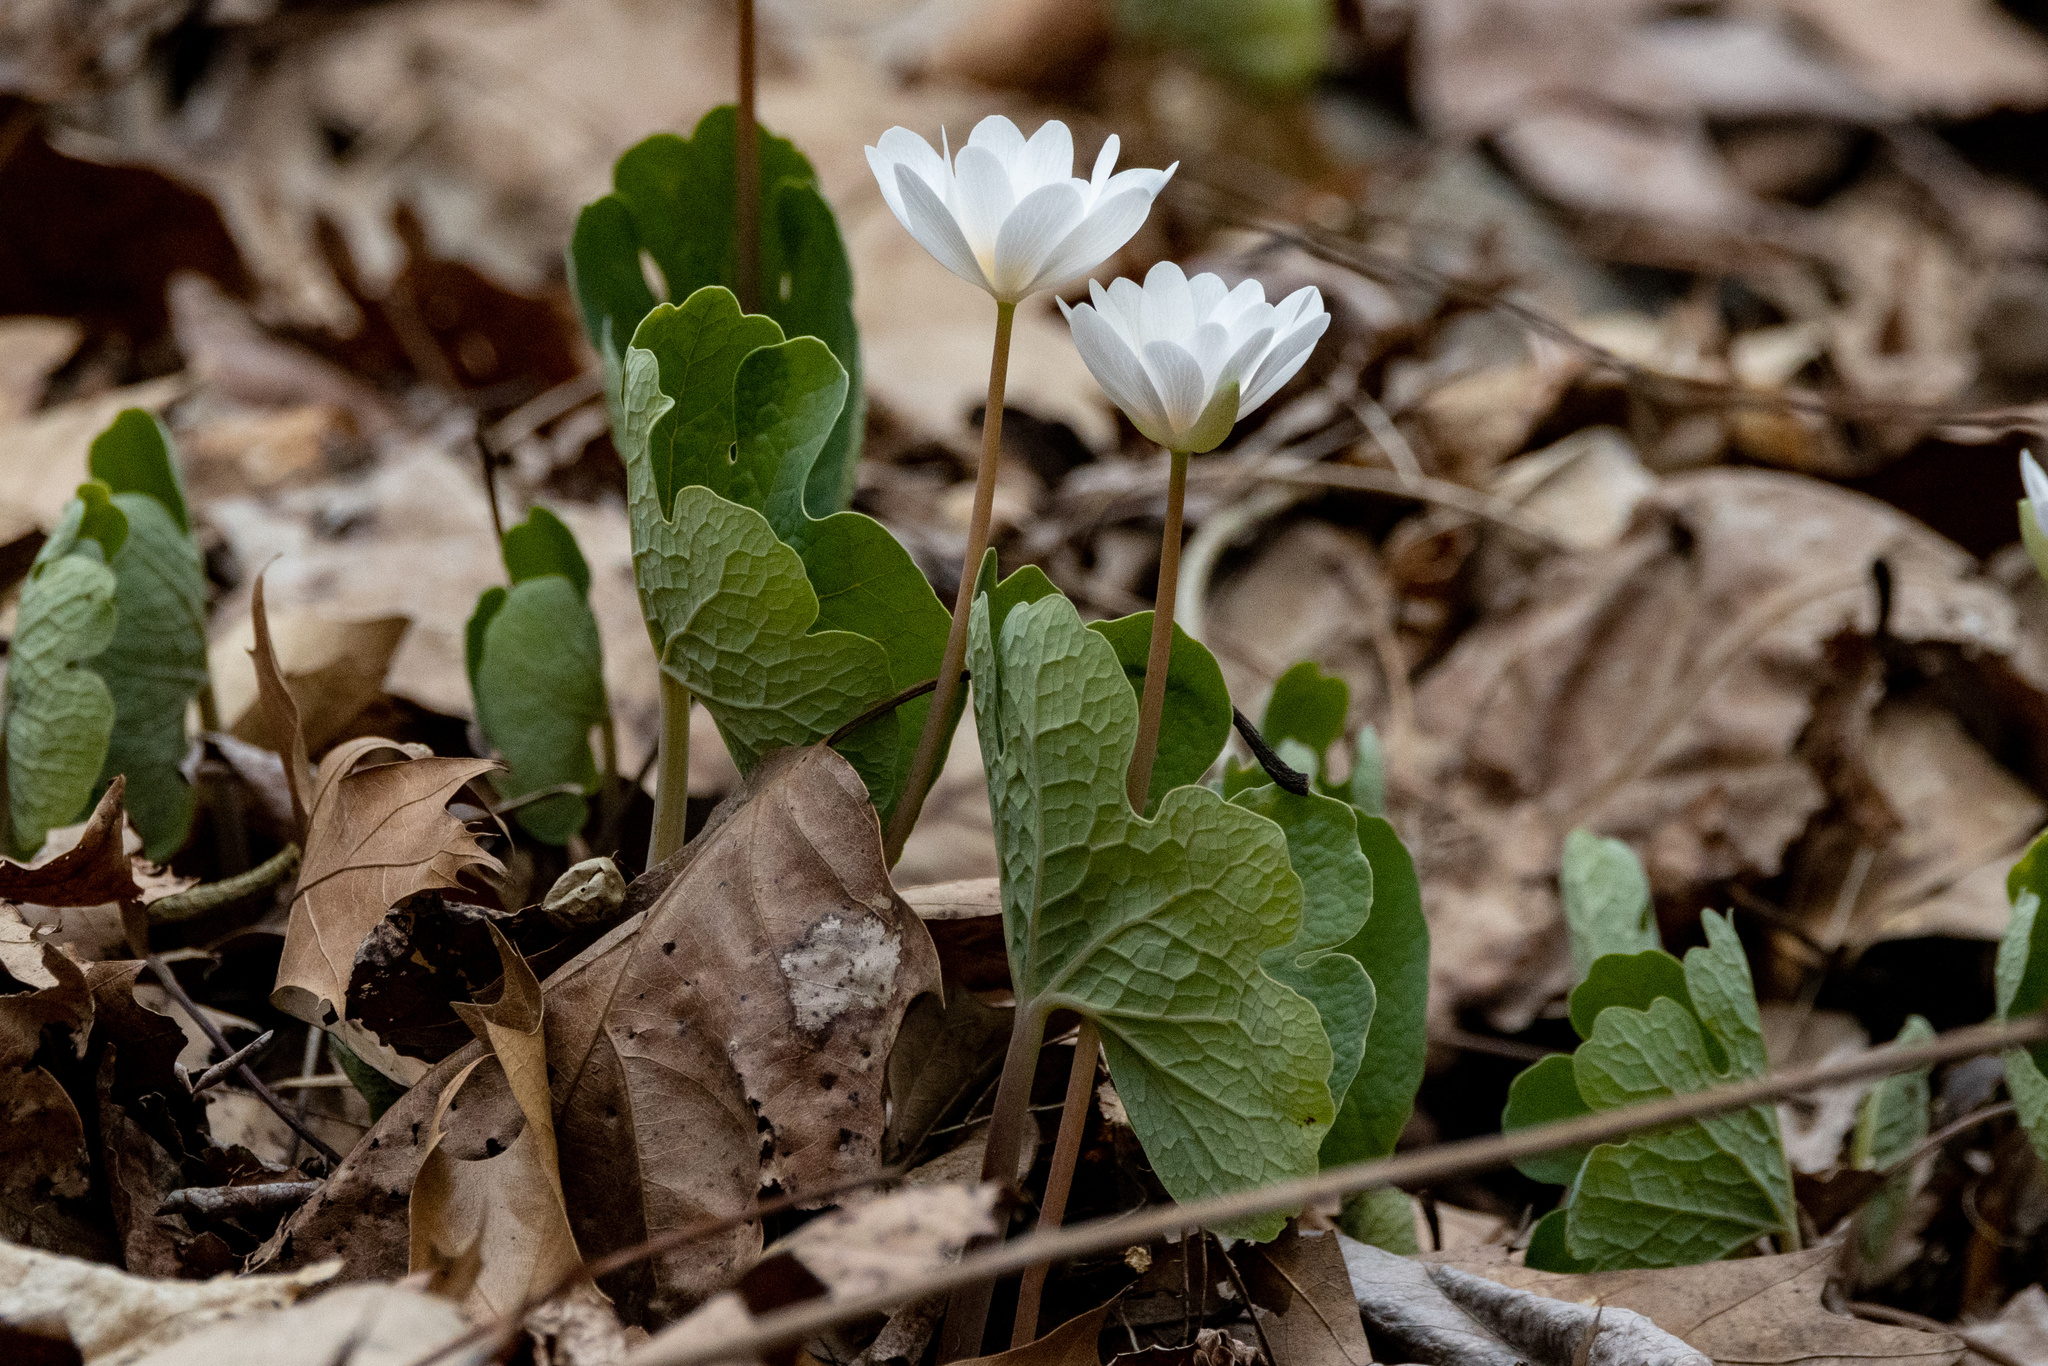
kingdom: Plantae
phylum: Tracheophyta
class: Magnoliopsida
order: Ranunculales
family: Papaveraceae
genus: Sanguinaria
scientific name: Sanguinaria canadensis
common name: Bloodroot
